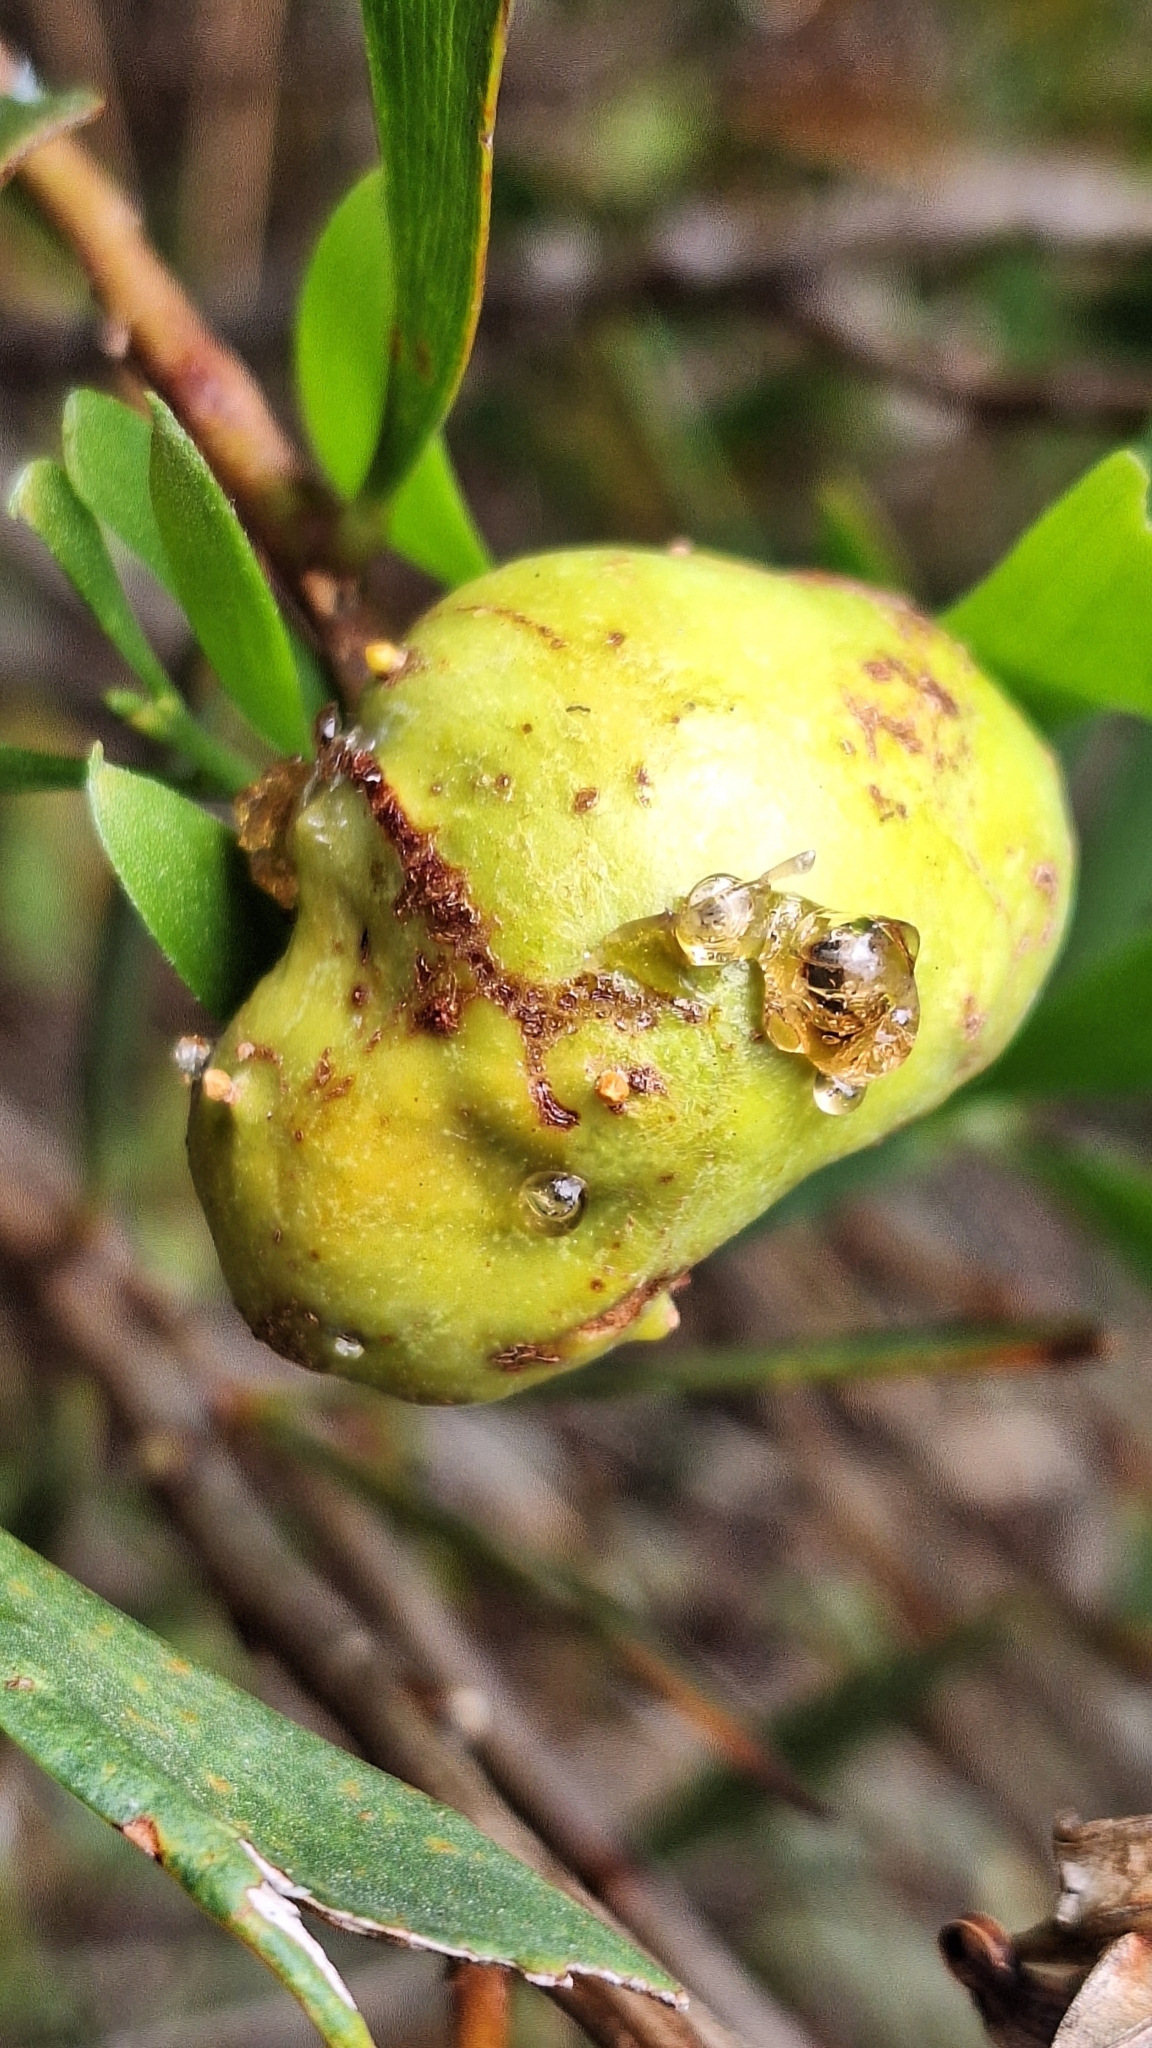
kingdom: Animalia
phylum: Arthropoda
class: Insecta
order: Hymenoptera
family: Pteromalidae
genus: Trichilogaster
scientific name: Trichilogaster acaciaelongifoliae
